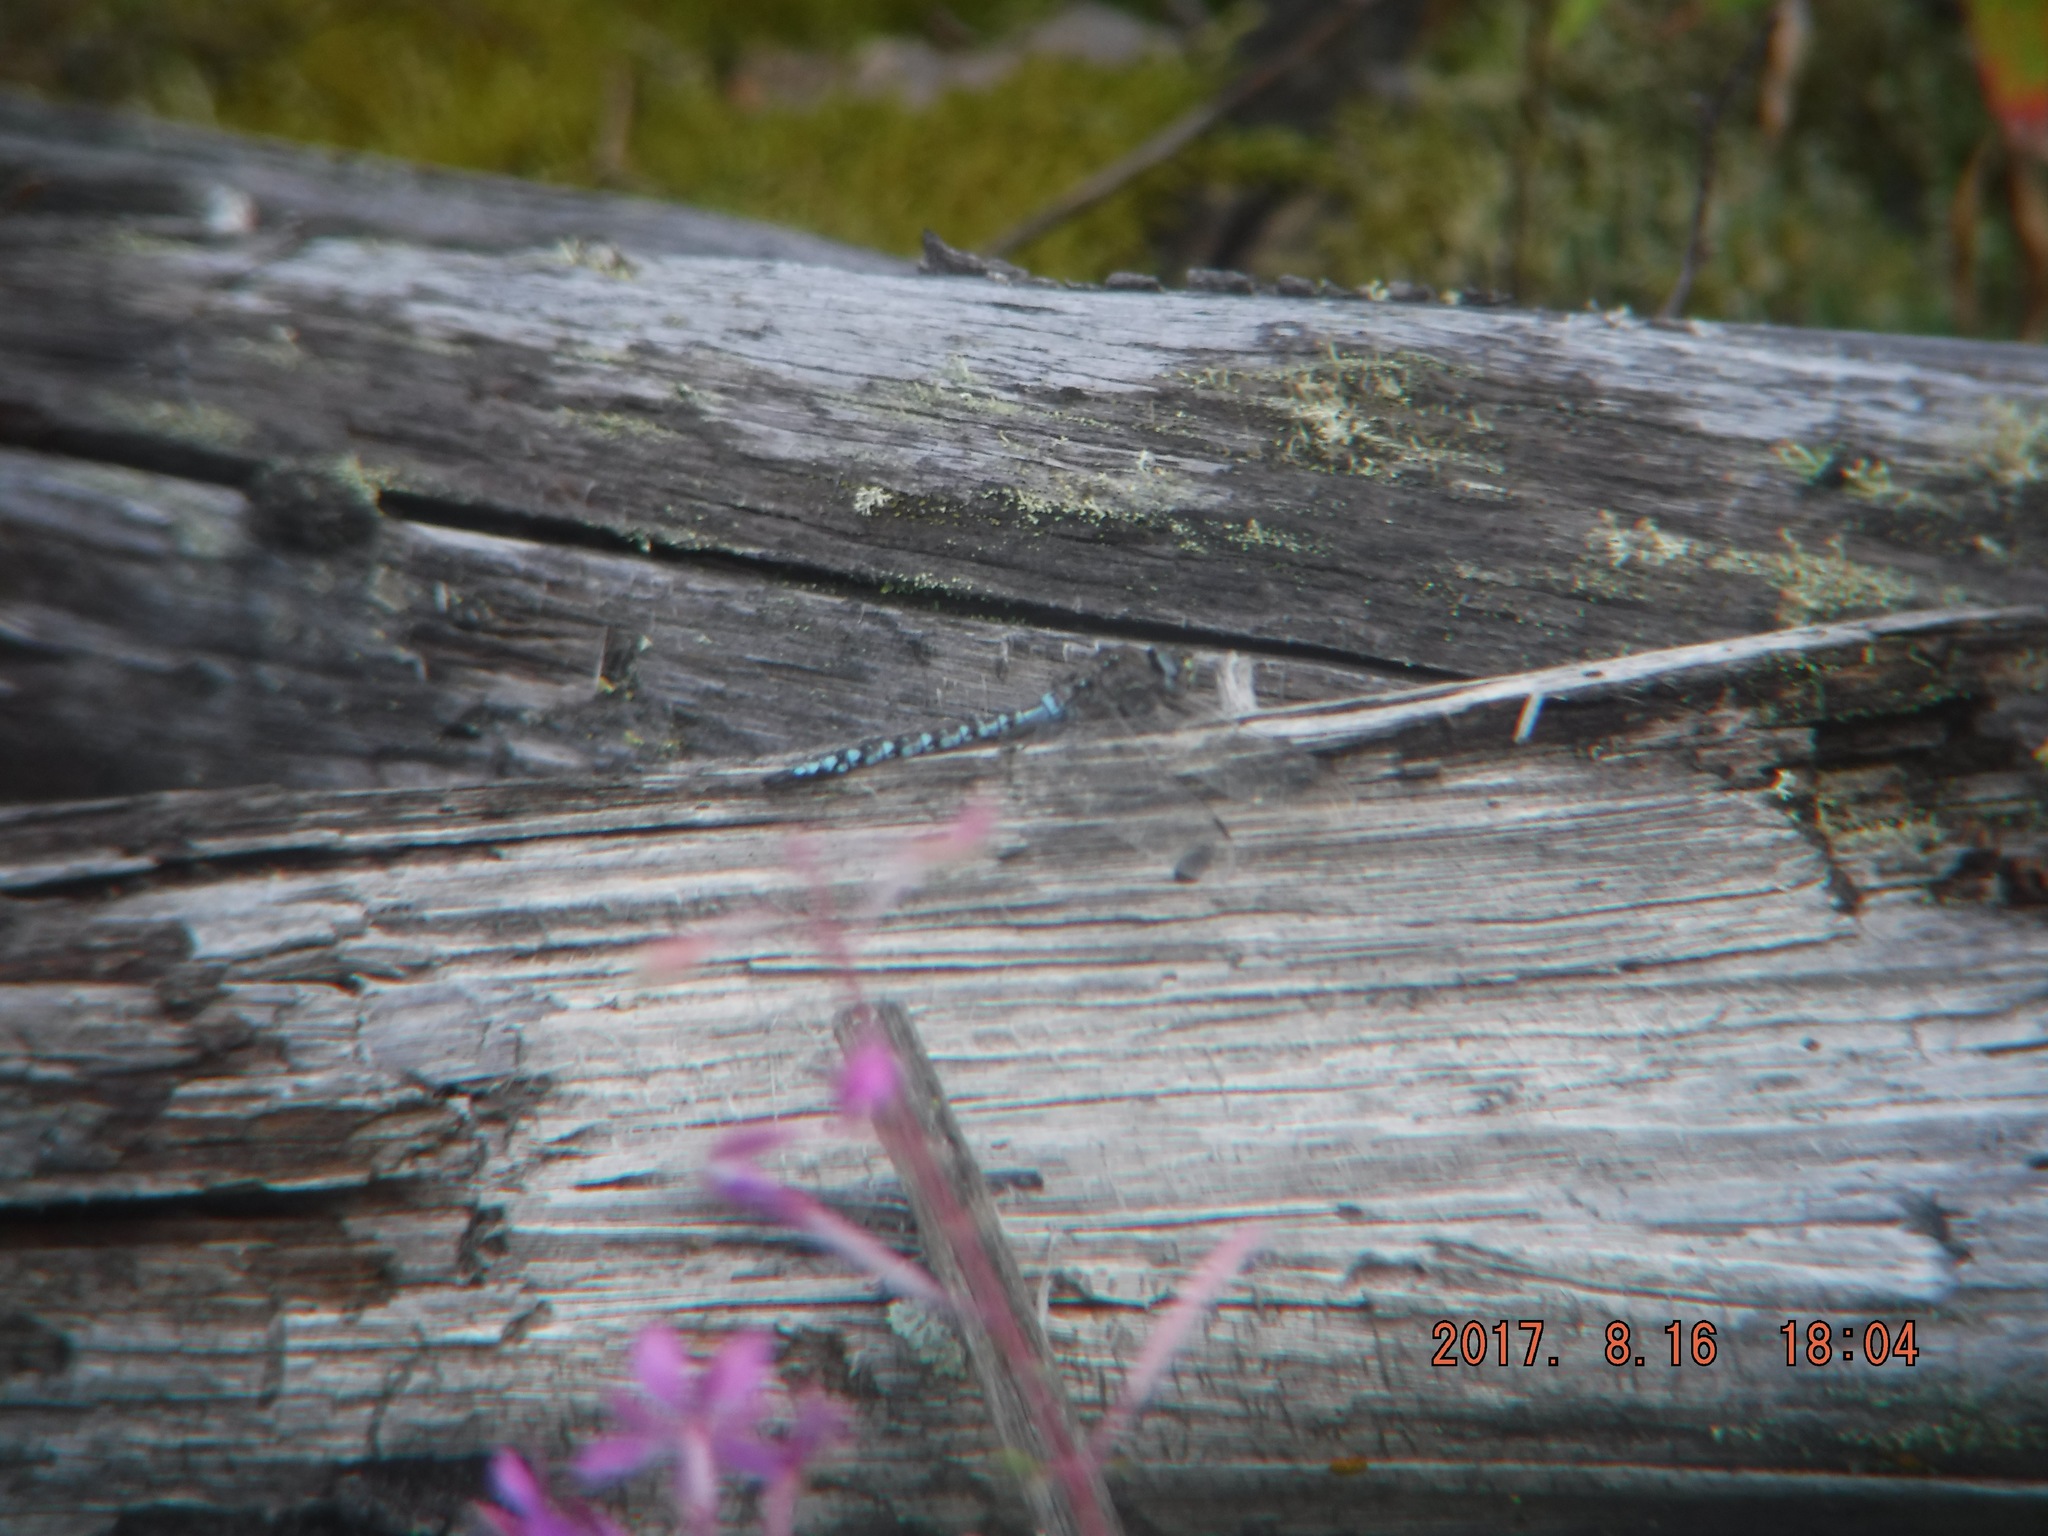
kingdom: Animalia
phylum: Arthropoda
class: Insecta
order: Odonata
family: Aeshnidae
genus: Aeshna
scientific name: Aeshna sitchensis
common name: Zigzag darner
